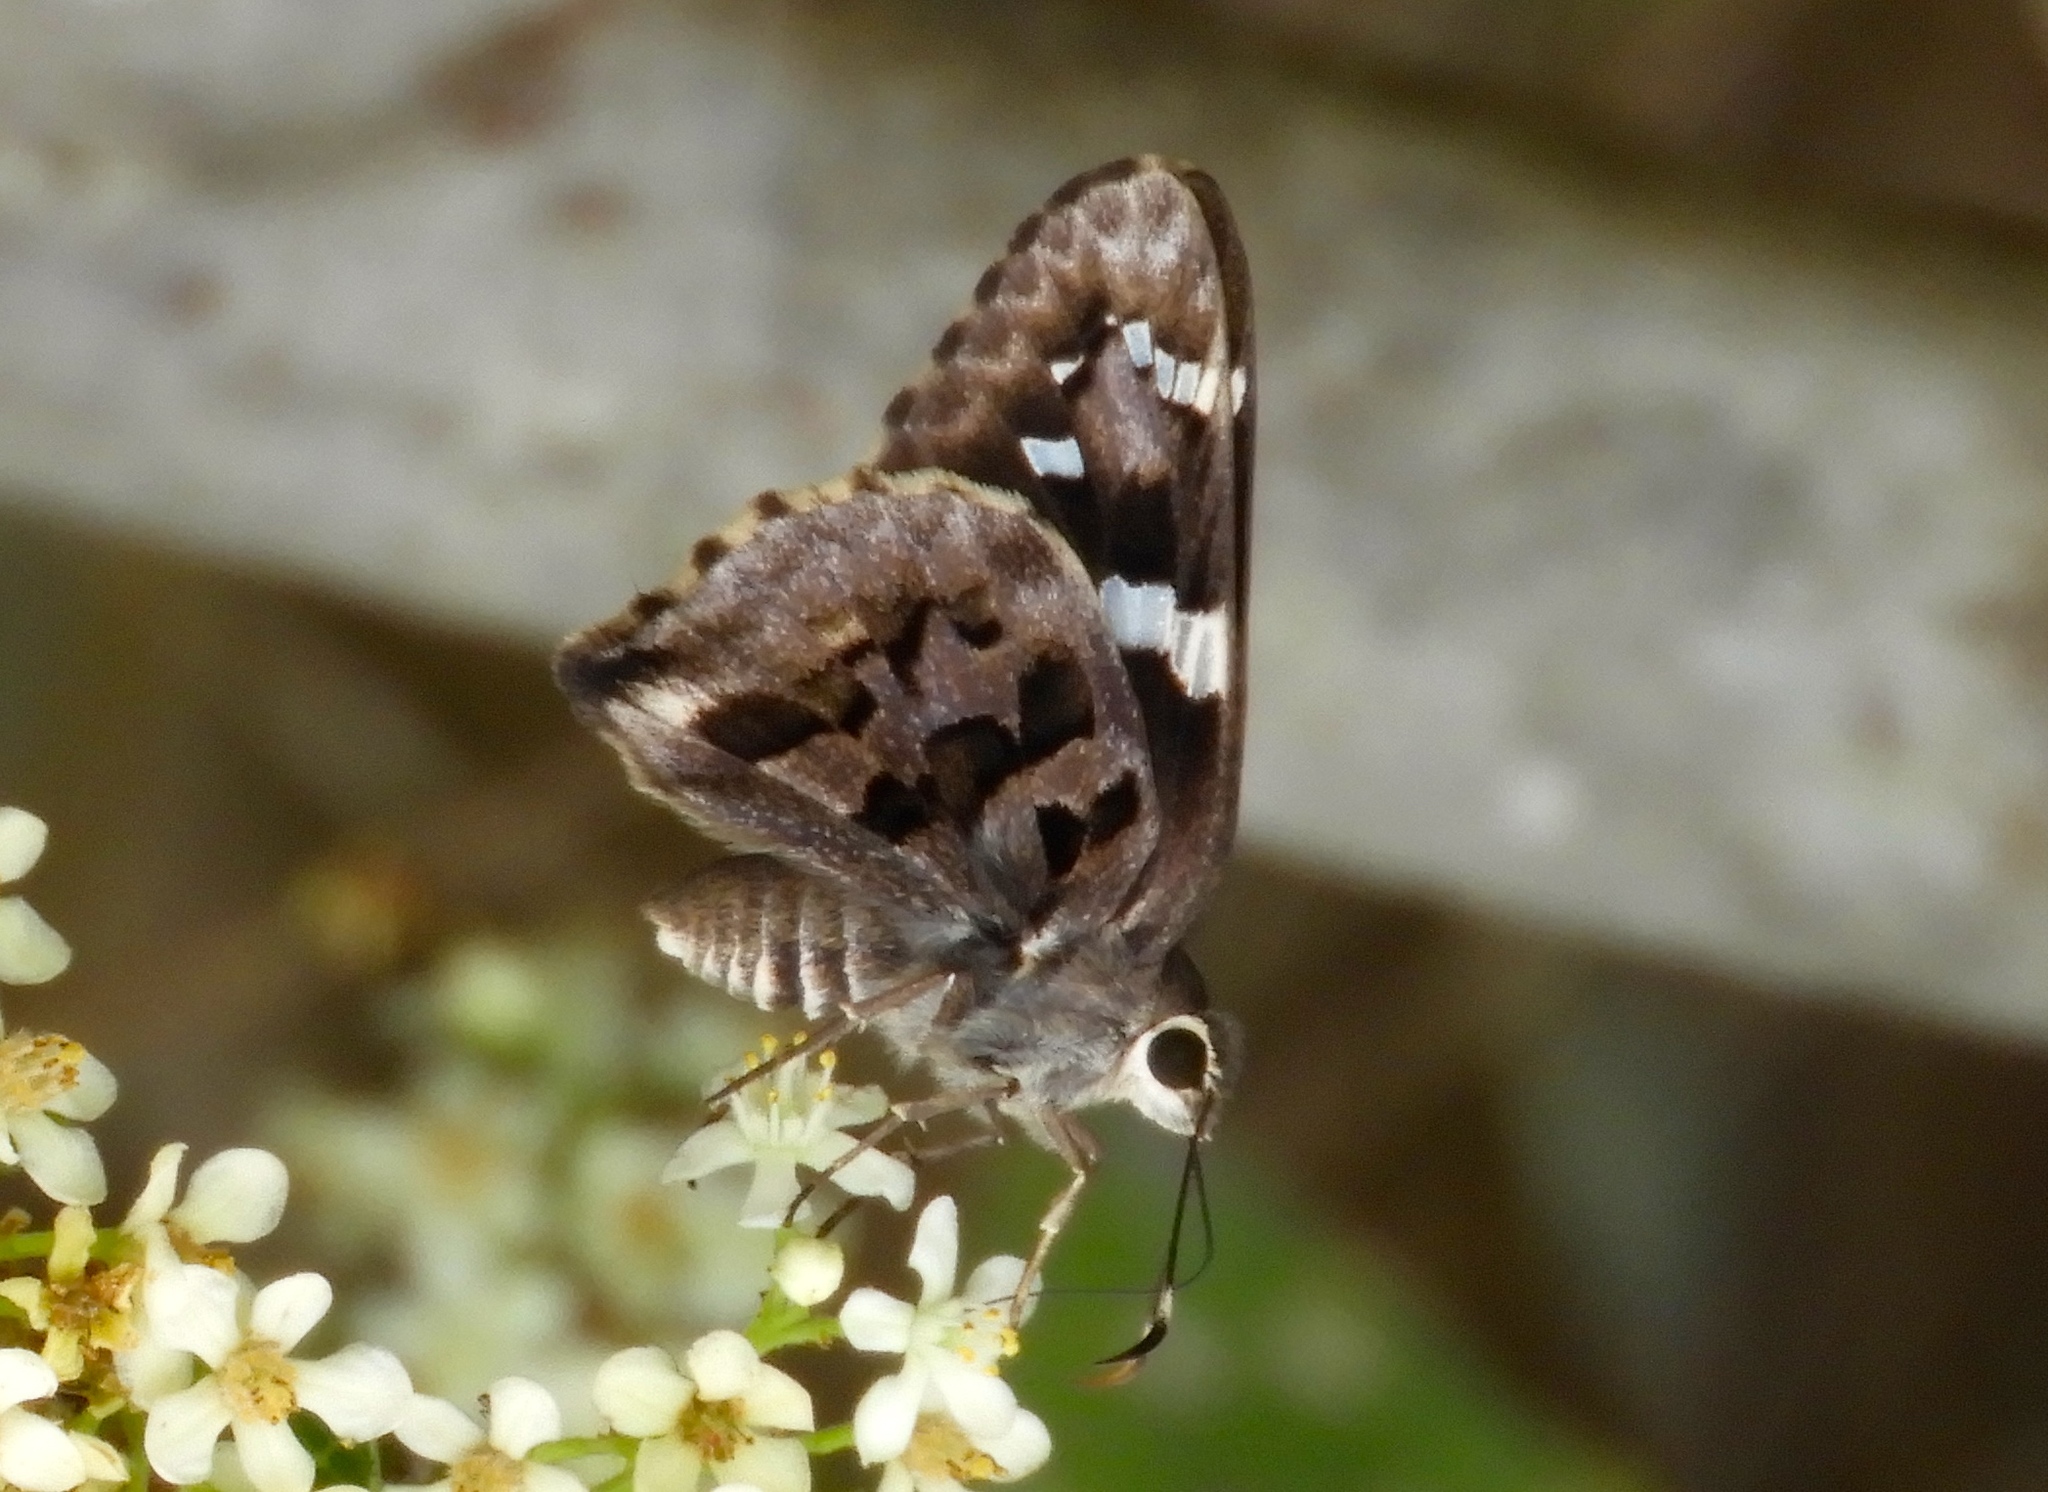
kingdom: Animalia
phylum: Arthropoda
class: Insecta
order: Lepidoptera
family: Hesperiidae
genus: Codatractus
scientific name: Codatractus melon
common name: Melon mottled-skipper
